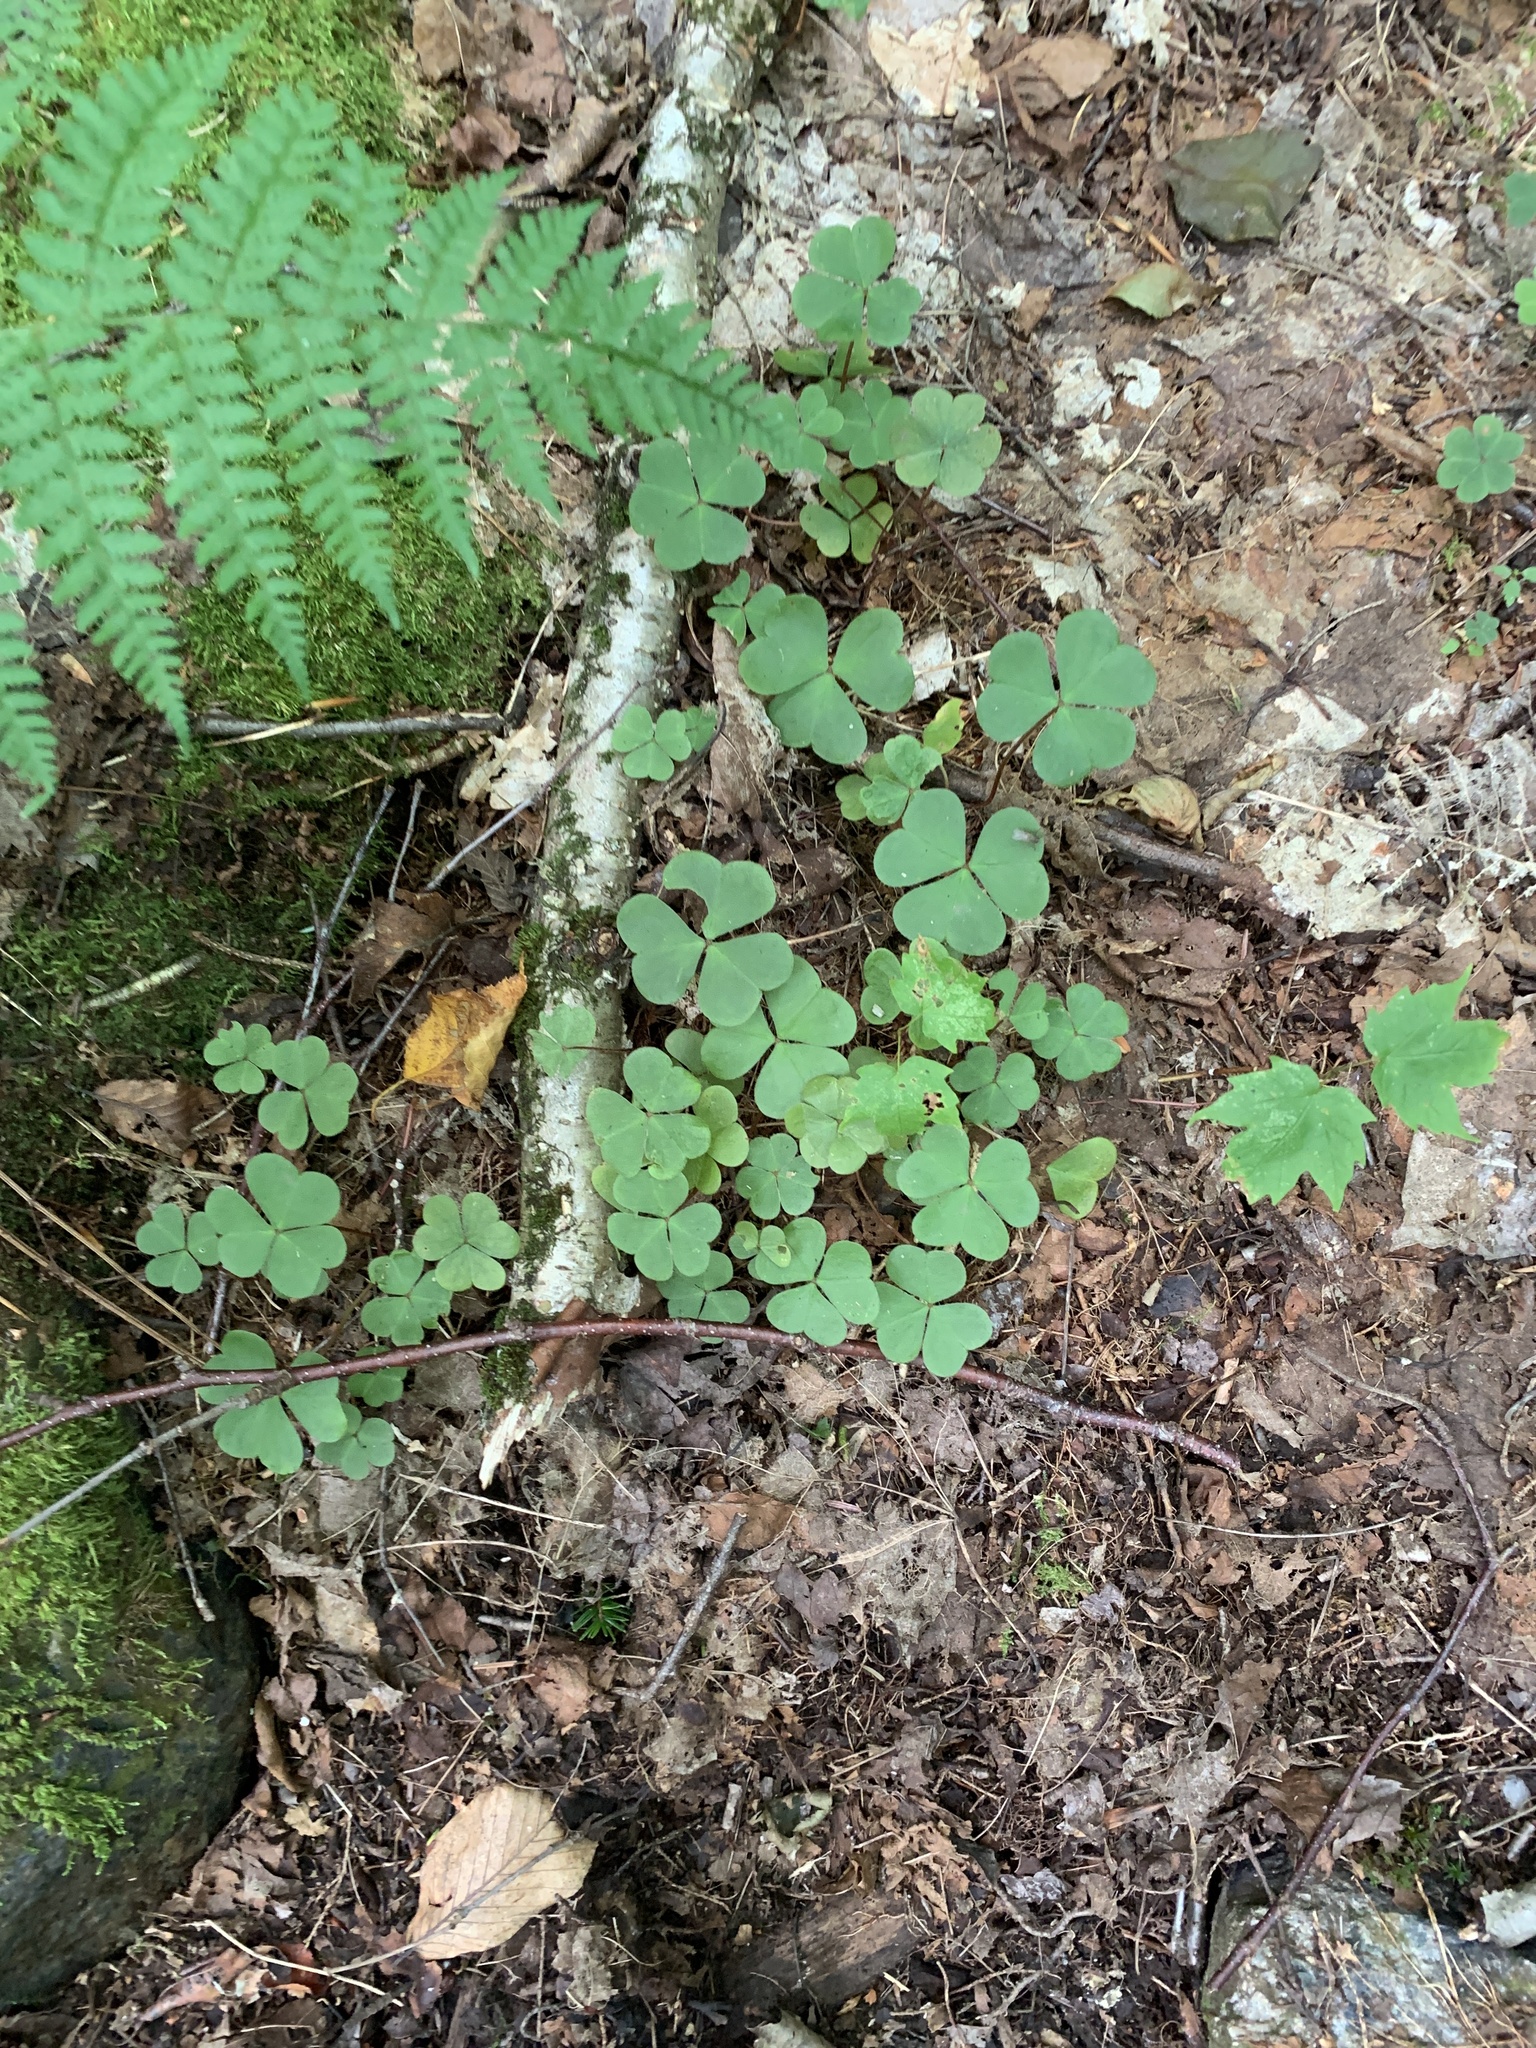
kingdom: Plantae
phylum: Tracheophyta
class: Magnoliopsida
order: Oxalidales
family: Oxalidaceae
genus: Oxalis
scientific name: Oxalis montana
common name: American wood-sorrel
